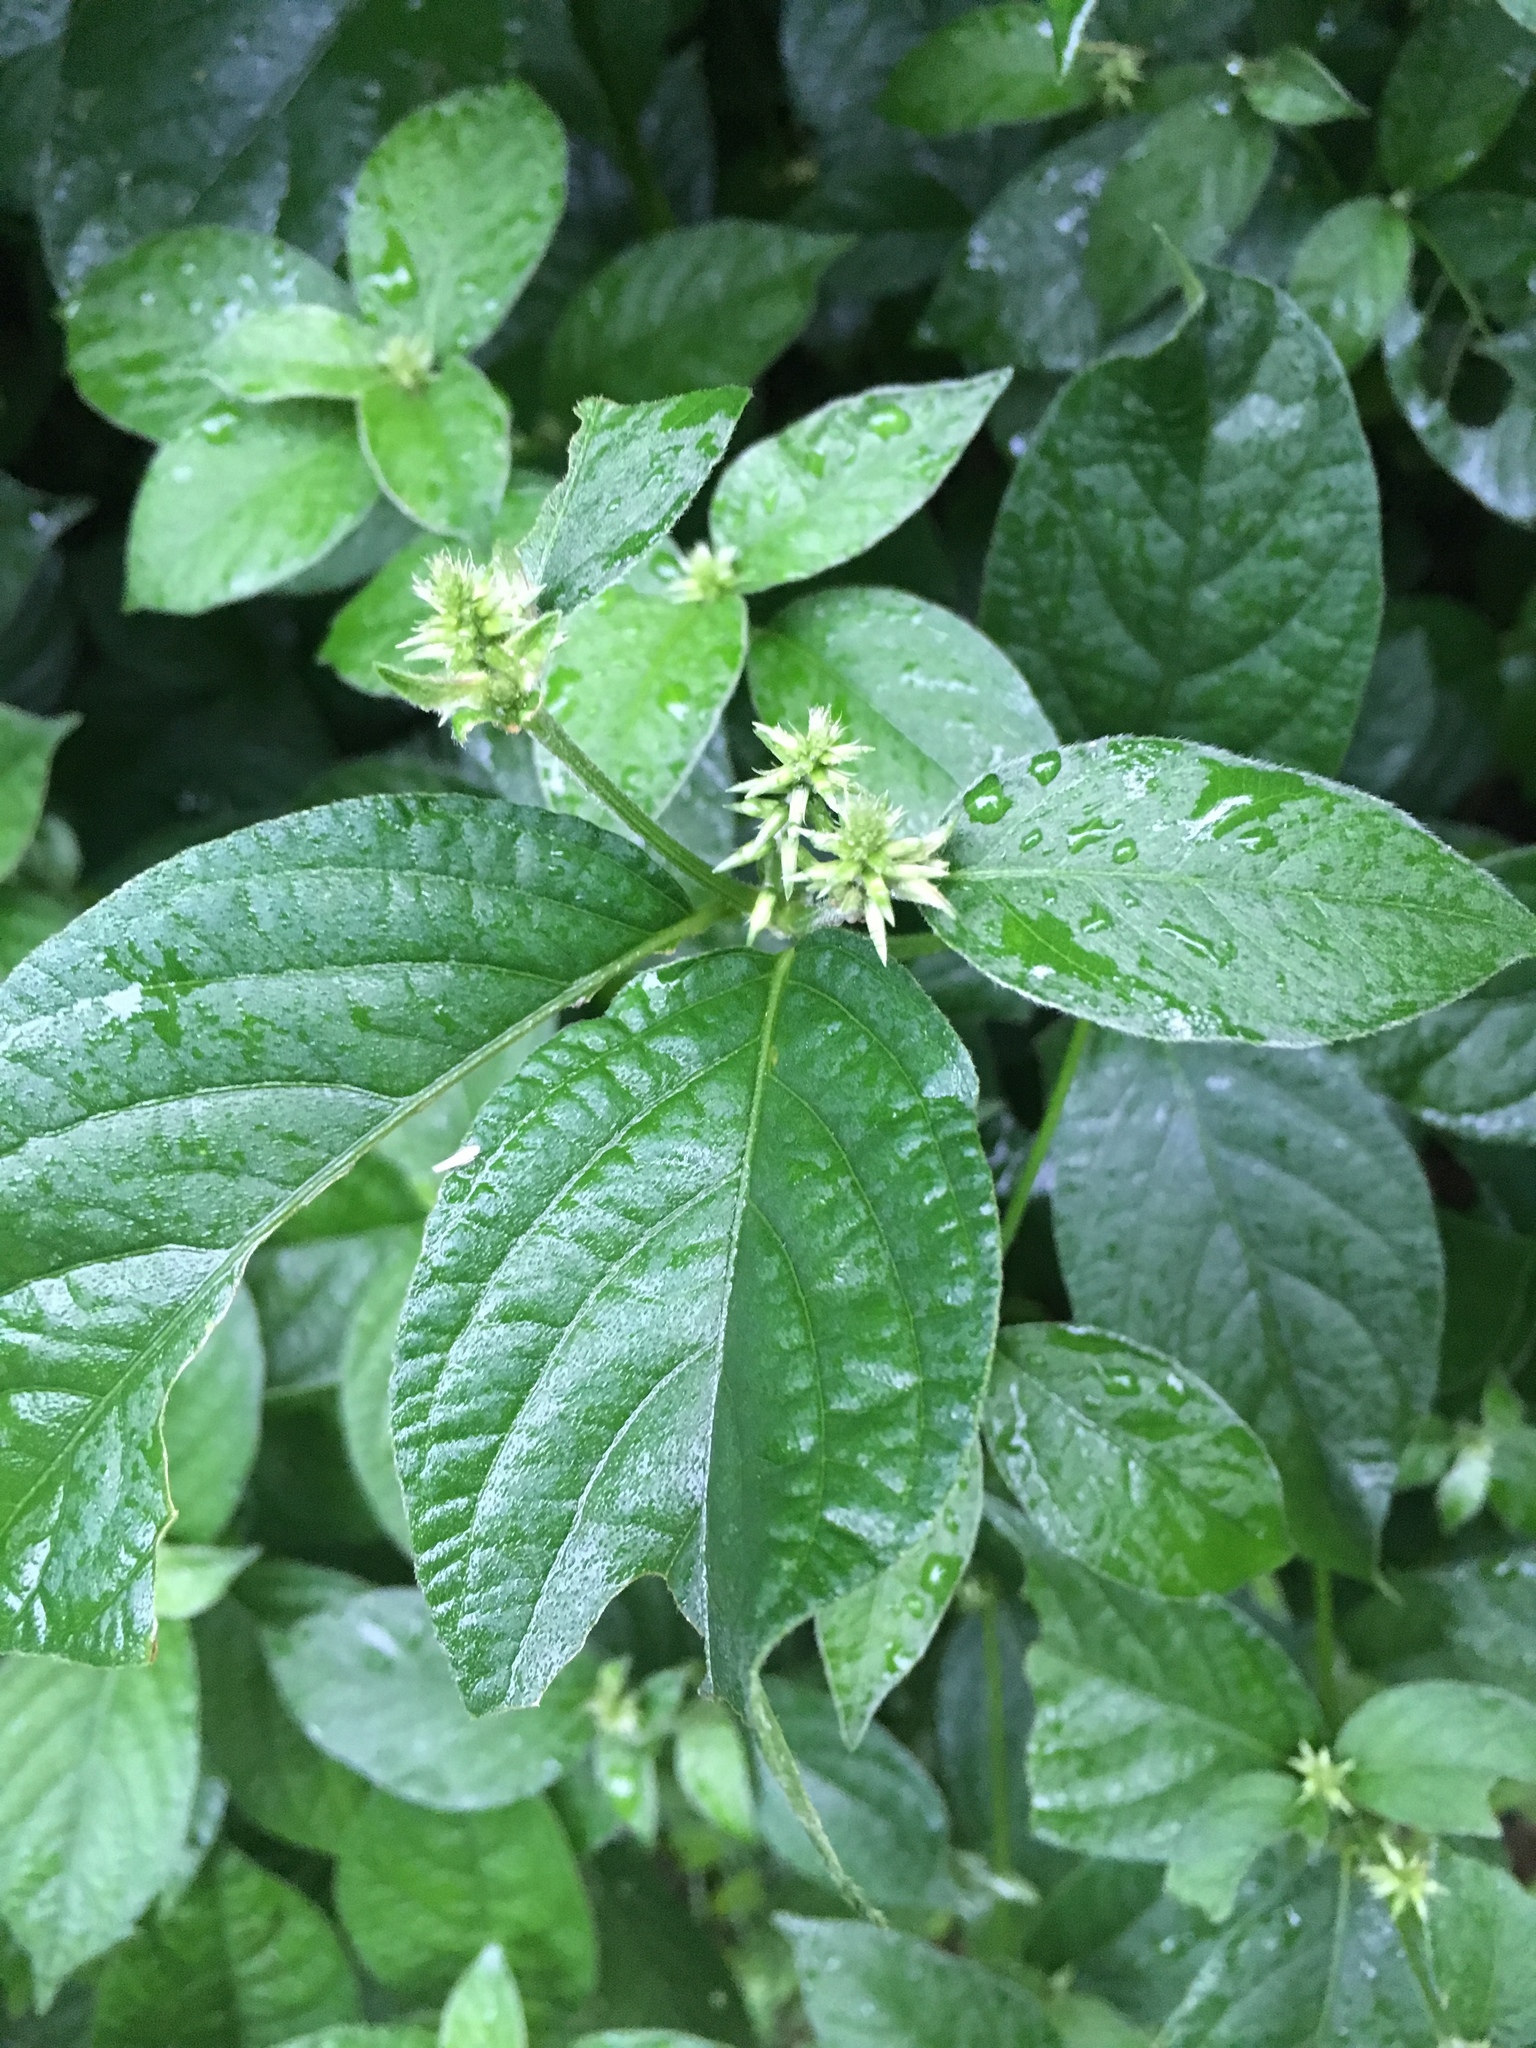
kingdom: Plantae
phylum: Tracheophyta
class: Magnoliopsida
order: Caryophyllales
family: Amaranthaceae
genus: Achyranthes
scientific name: Achyranthes bidentata
